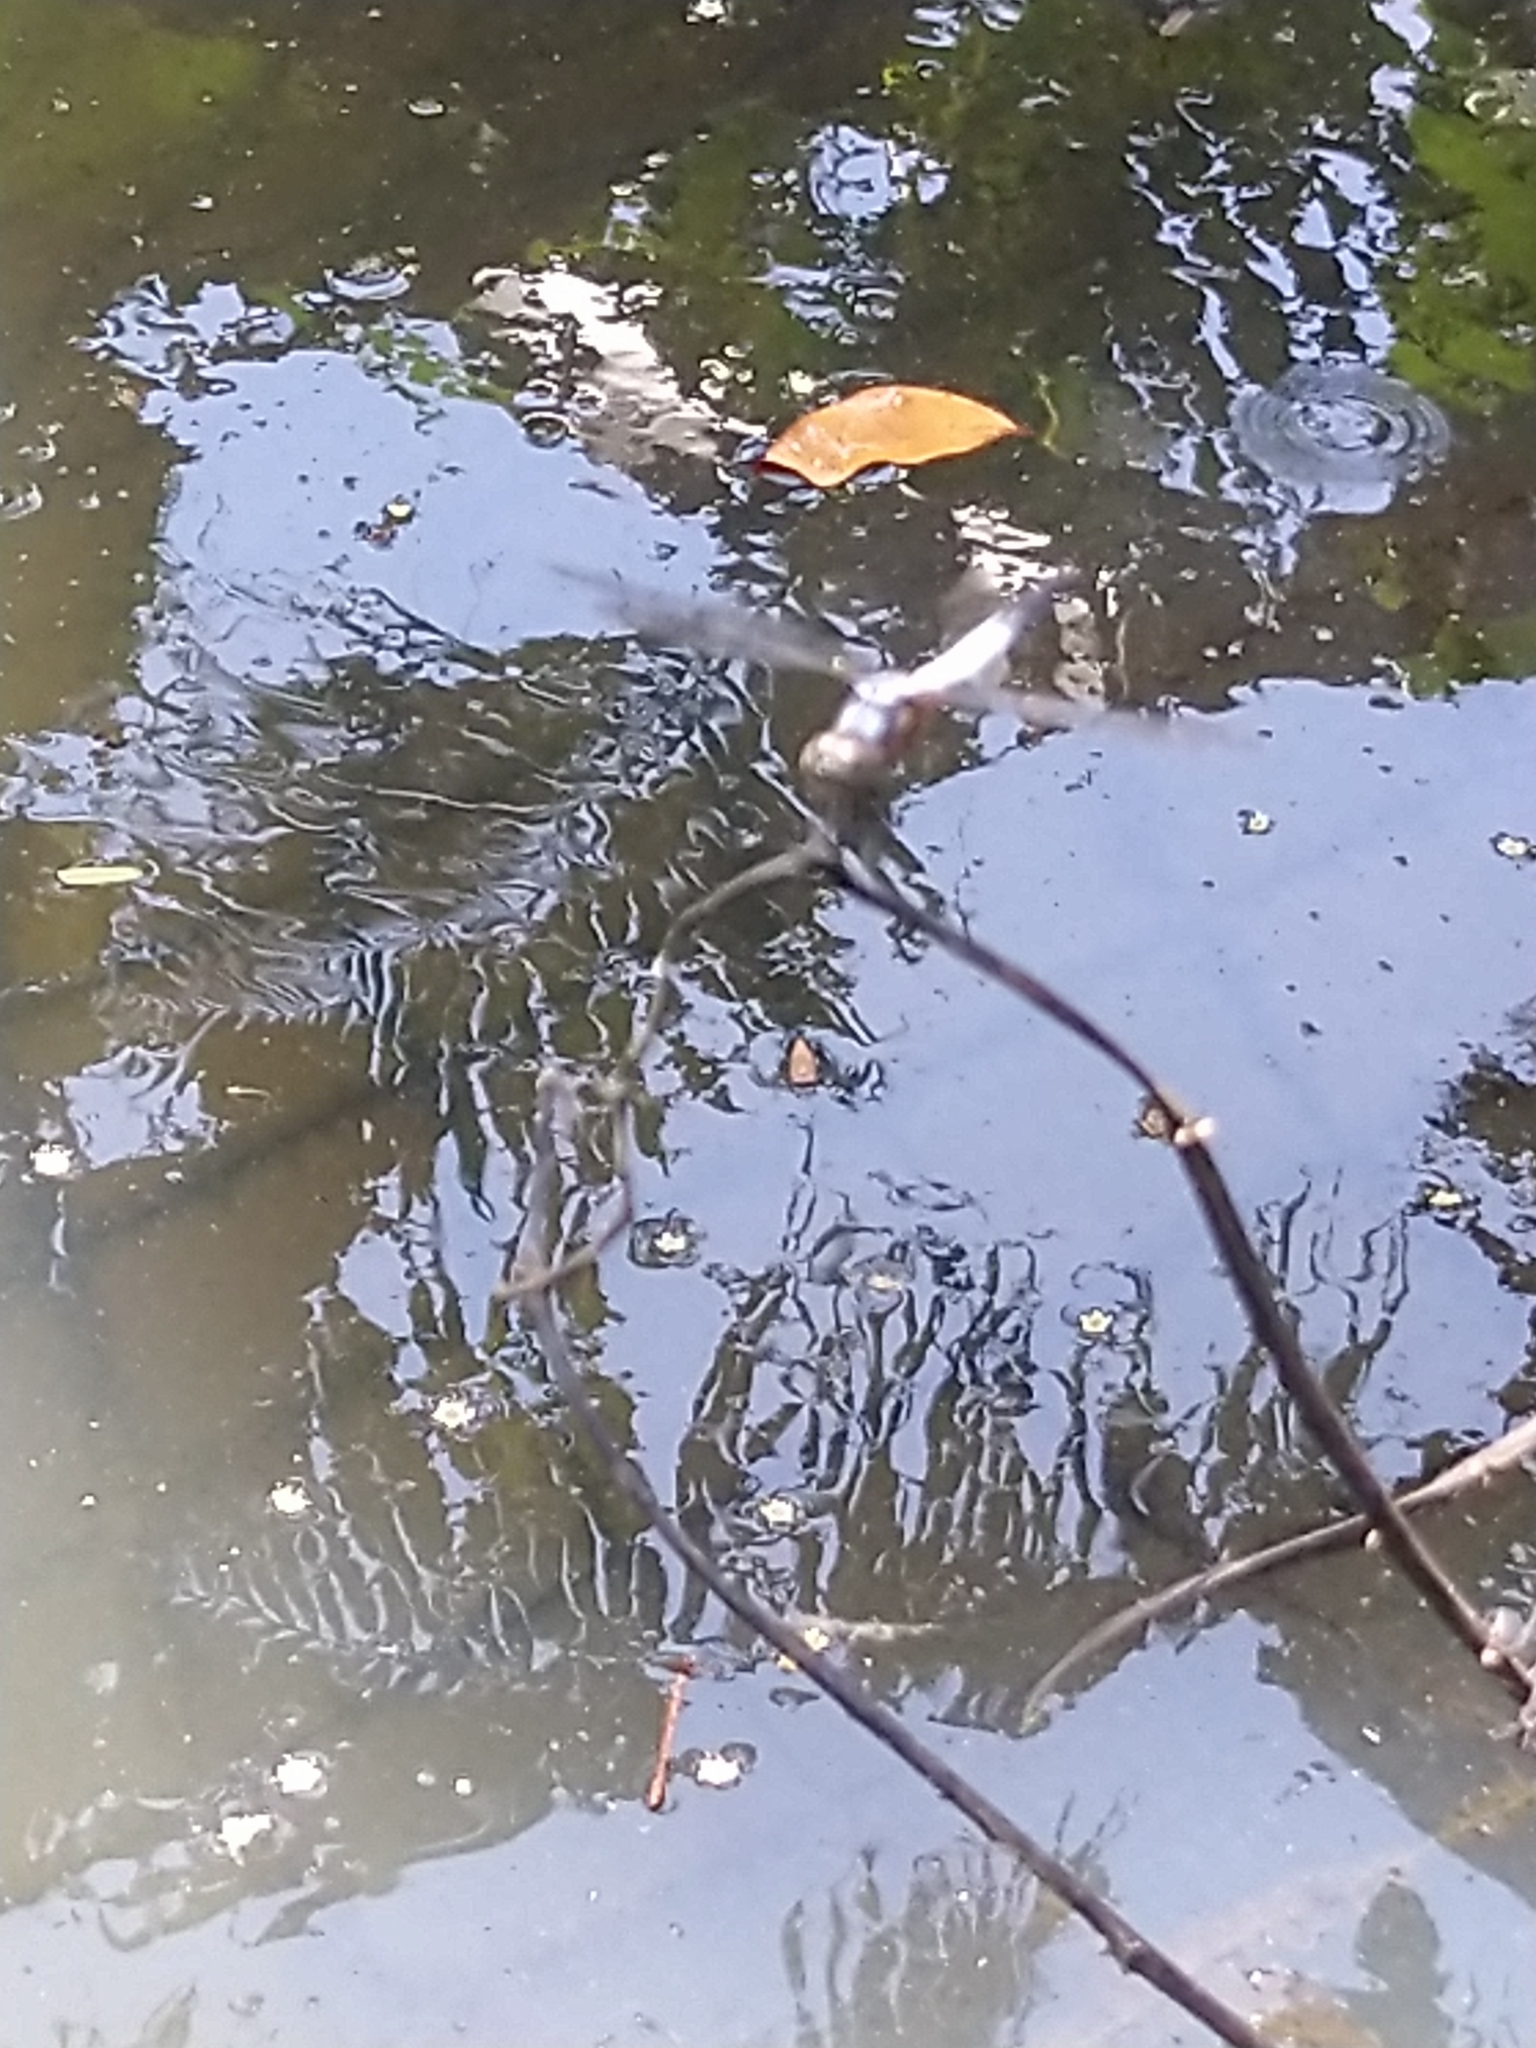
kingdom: Animalia
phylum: Arthropoda
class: Insecta
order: Odonata
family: Libellulidae
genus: Brachydiplax
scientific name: Brachydiplax chalybea
